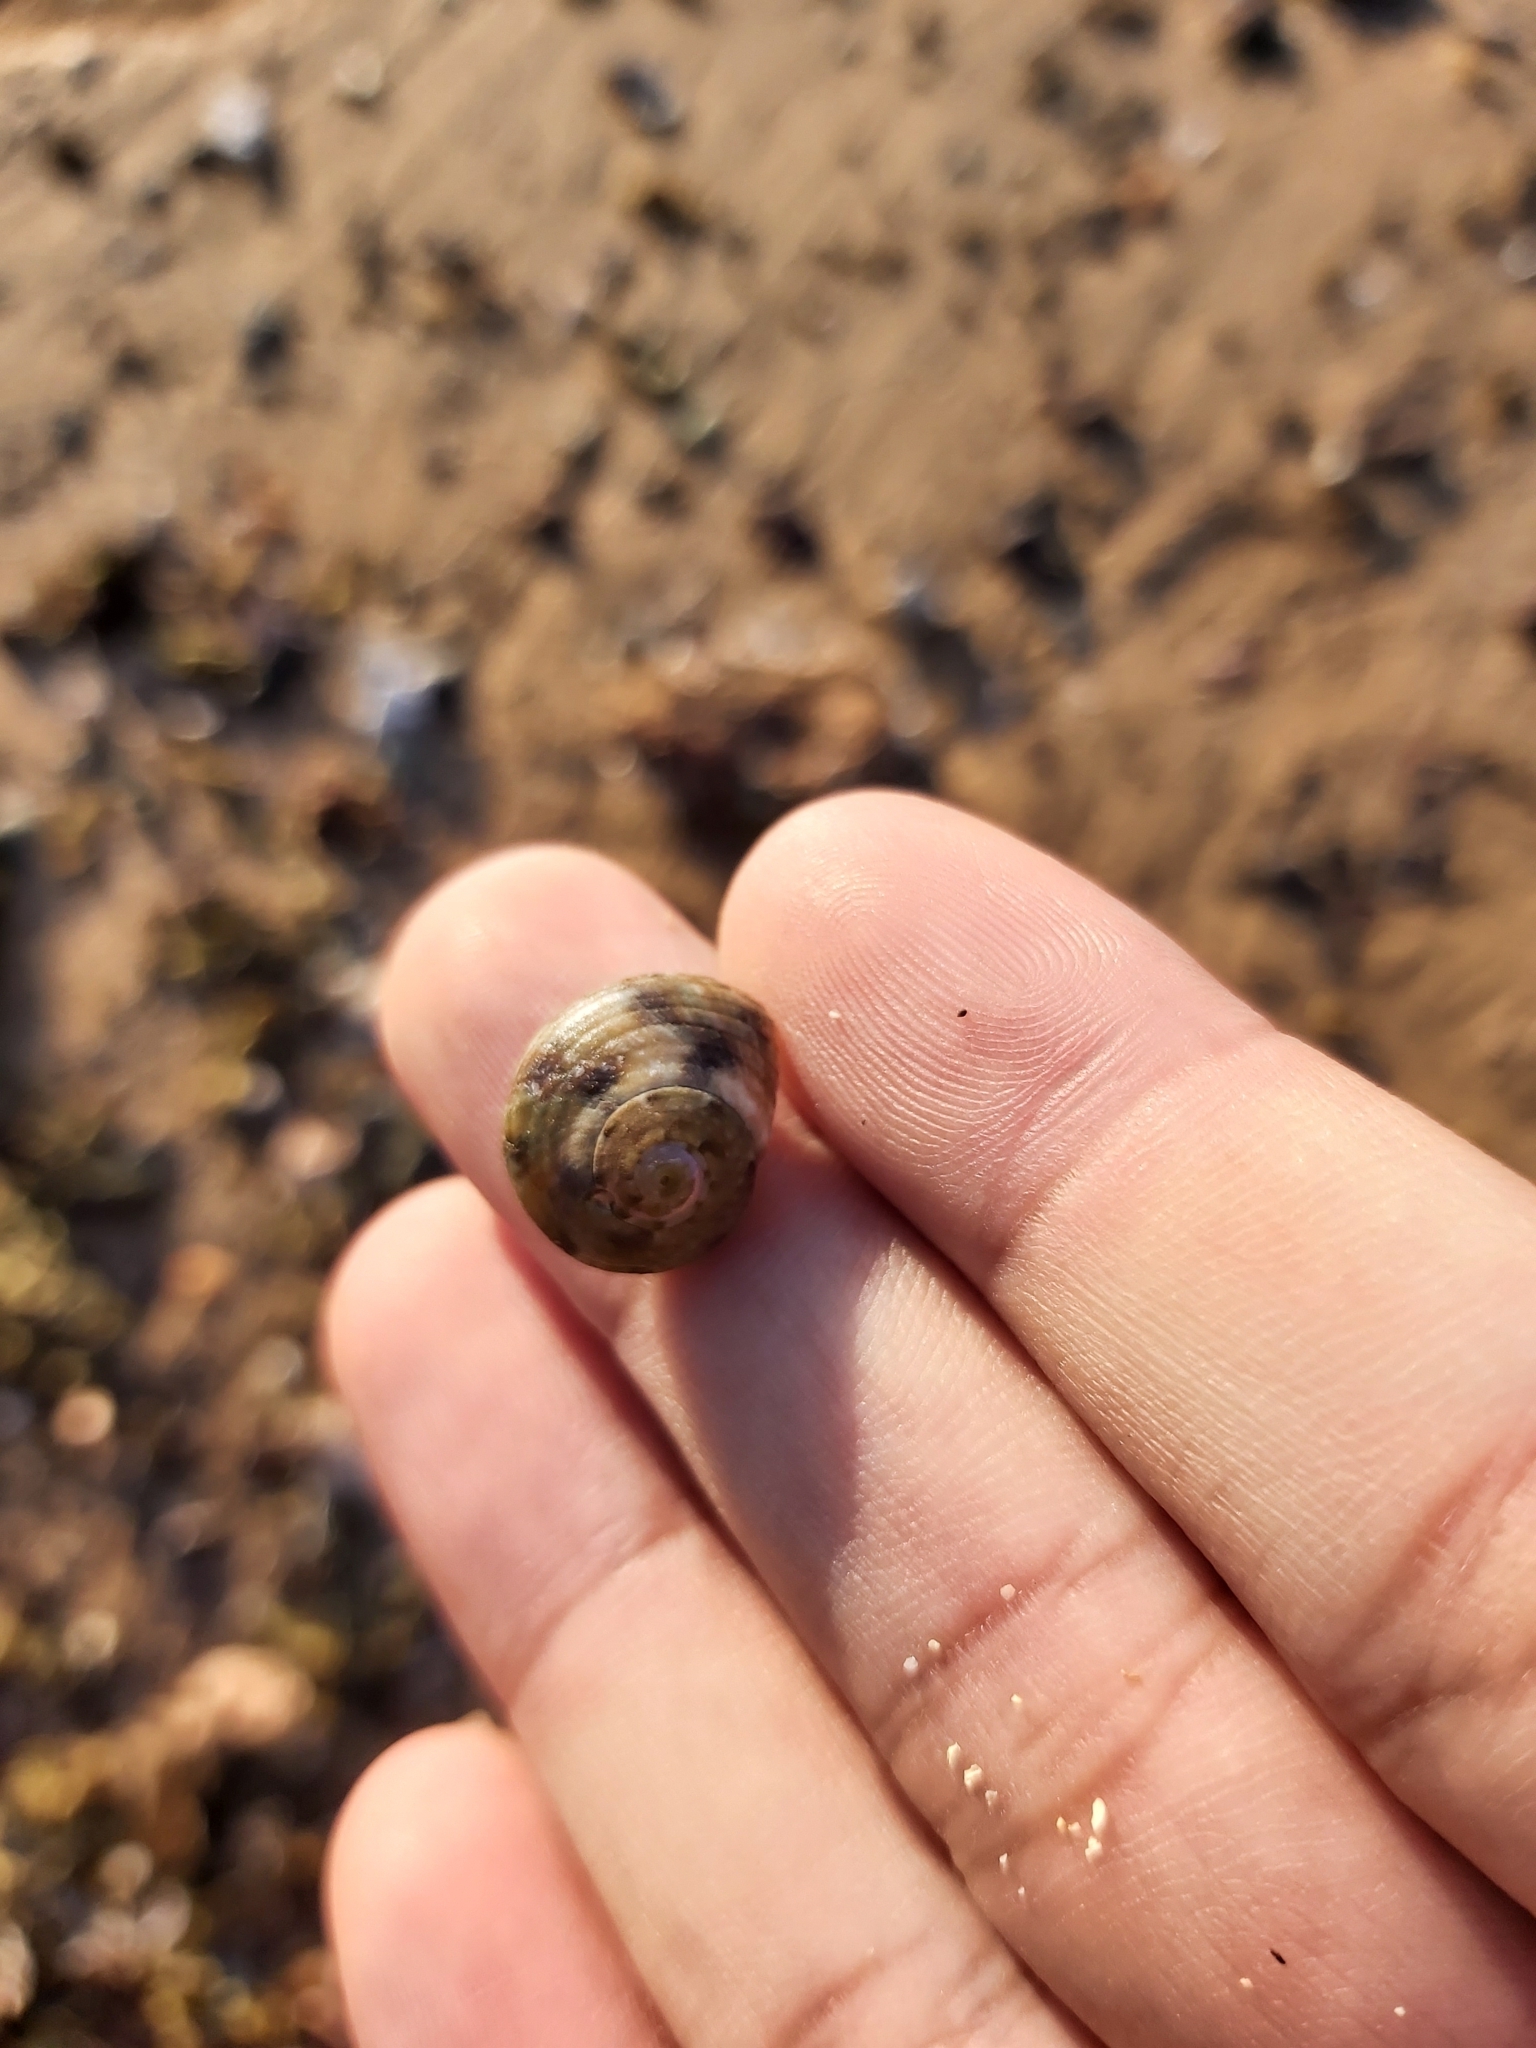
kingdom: Animalia
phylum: Mollusca
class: Gastropoda
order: Trochida
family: Turbinidae
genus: Lunella
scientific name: Lunella undulata
